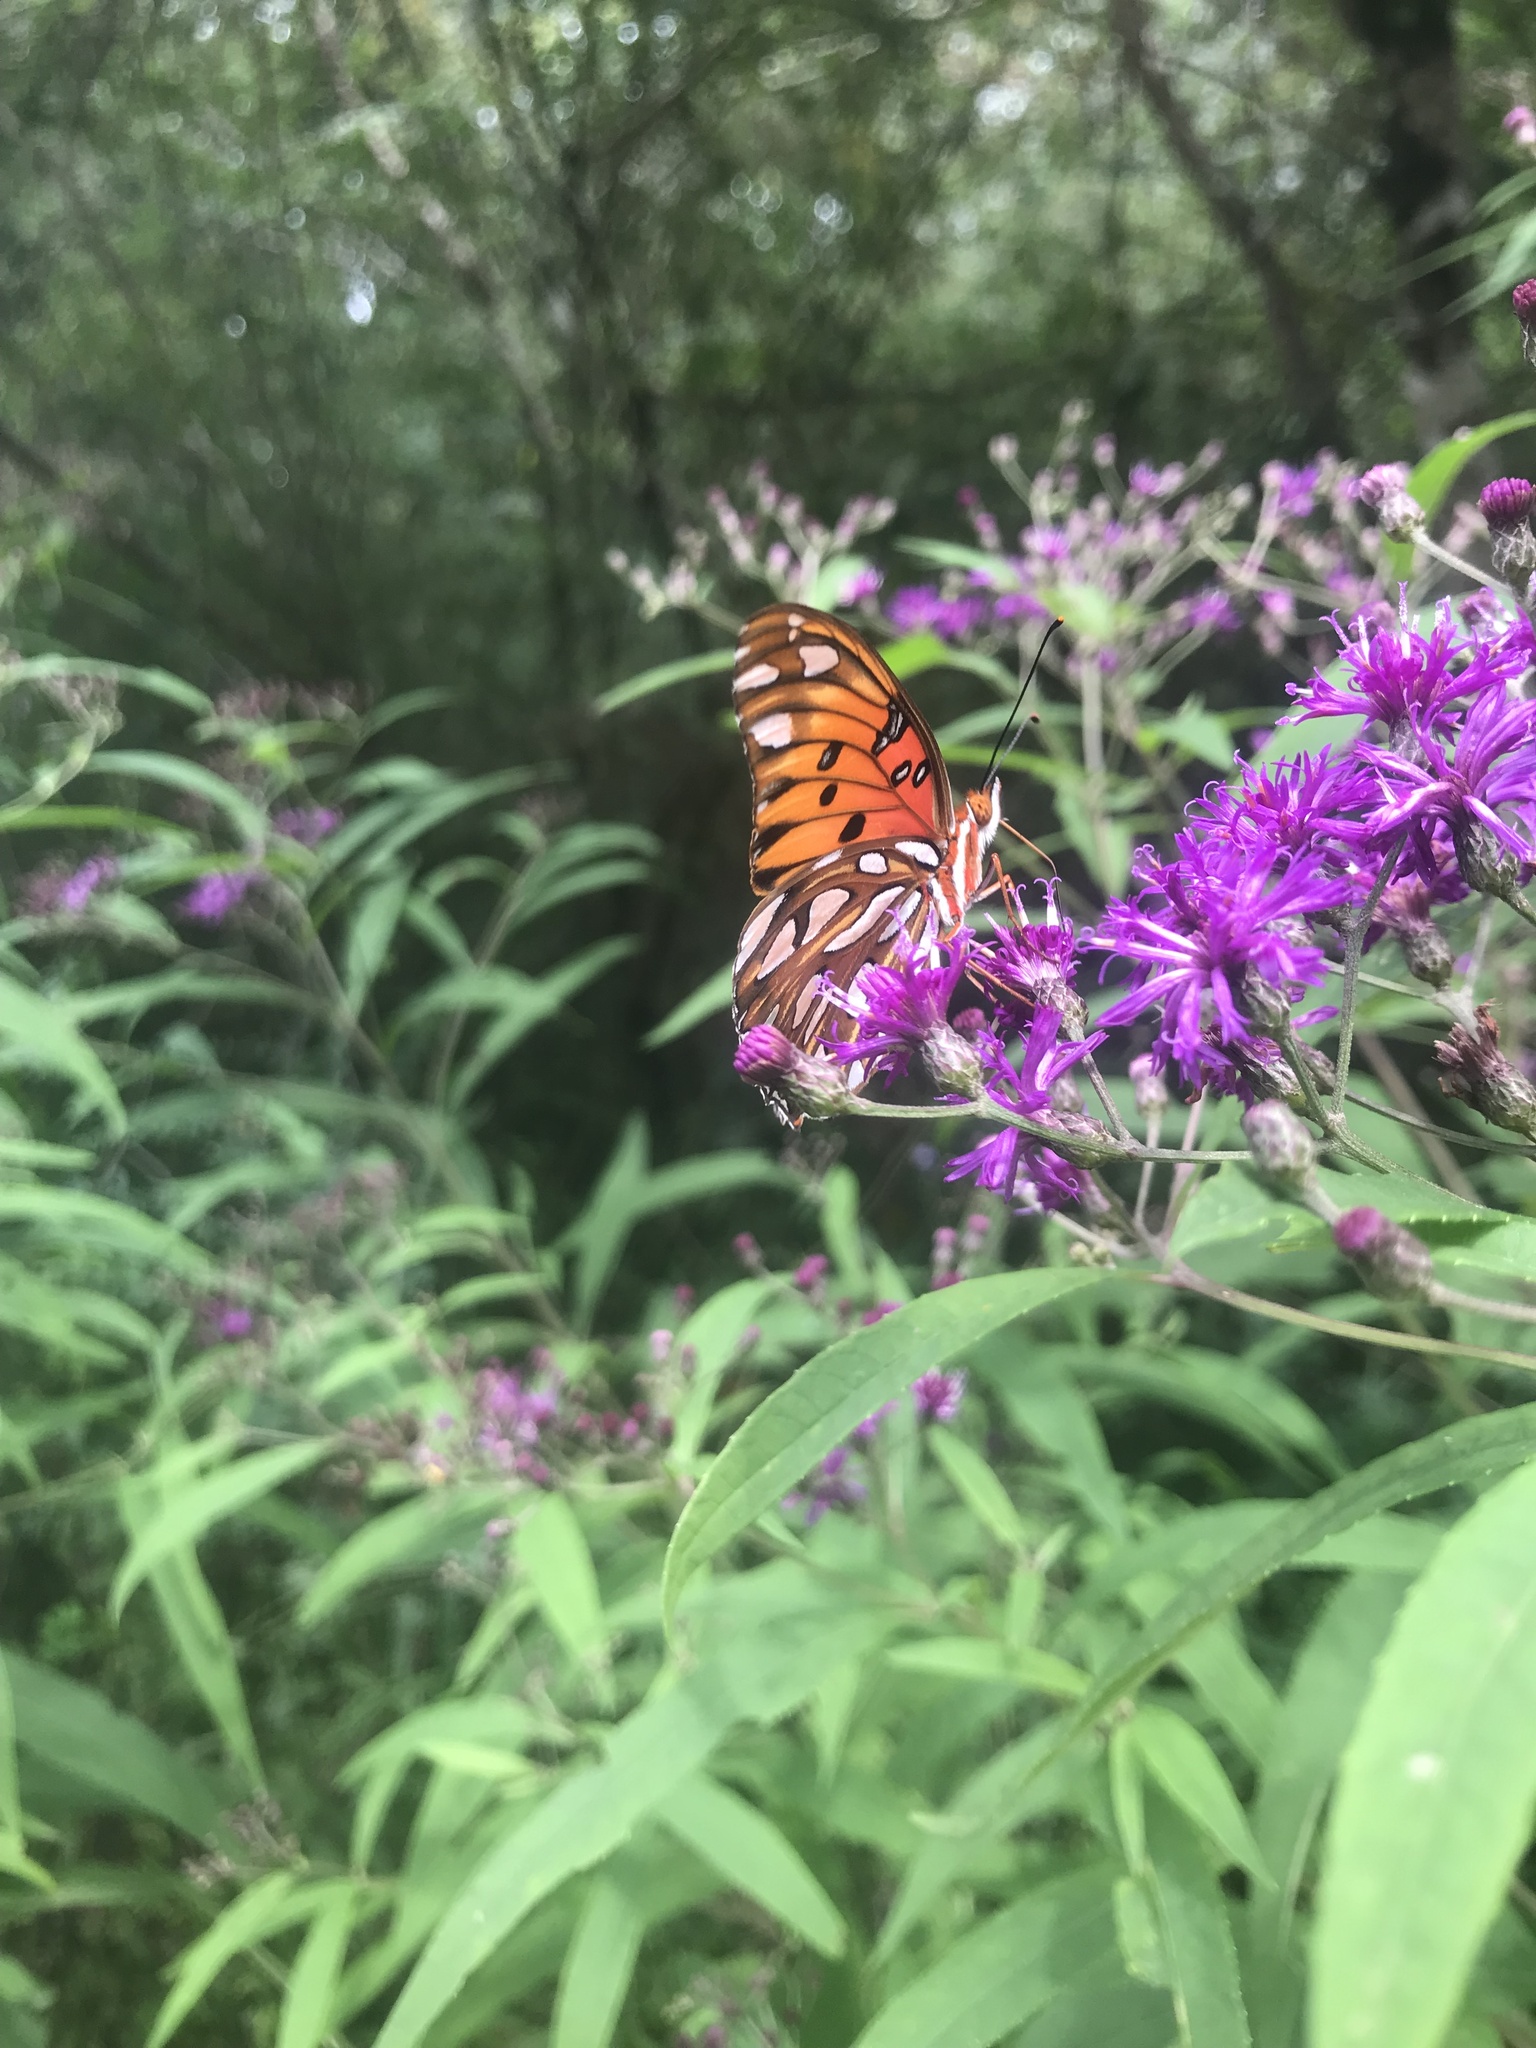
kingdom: Animalia
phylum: Arthropoda
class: Insecta
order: Lepidoptera
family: Nymphalidae
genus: Dione
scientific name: Dione vanillae
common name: Gulf fritillary
